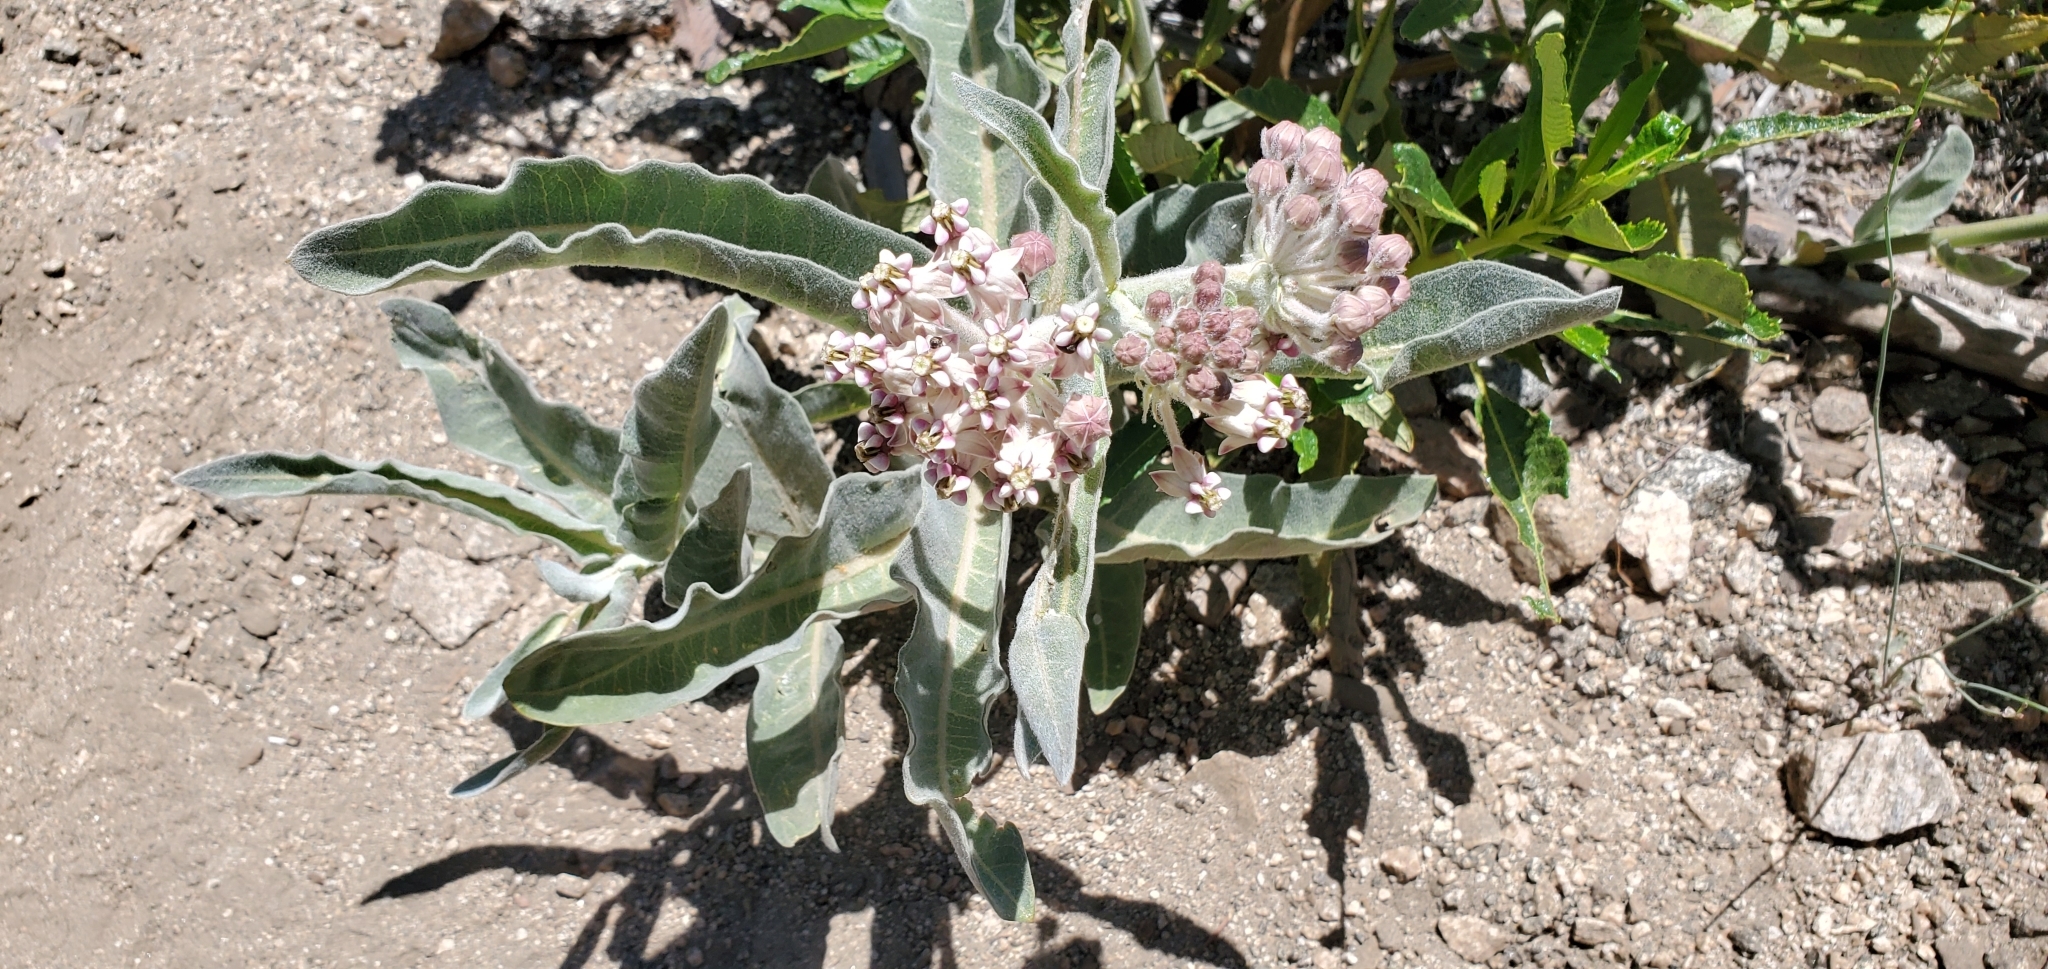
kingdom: Plantae
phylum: Tracheophyta
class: Magnoliopsida
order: Gentianales
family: Apocynaceae
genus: Asclepias
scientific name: Asclepias eriocarpa
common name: Indian milkweed
